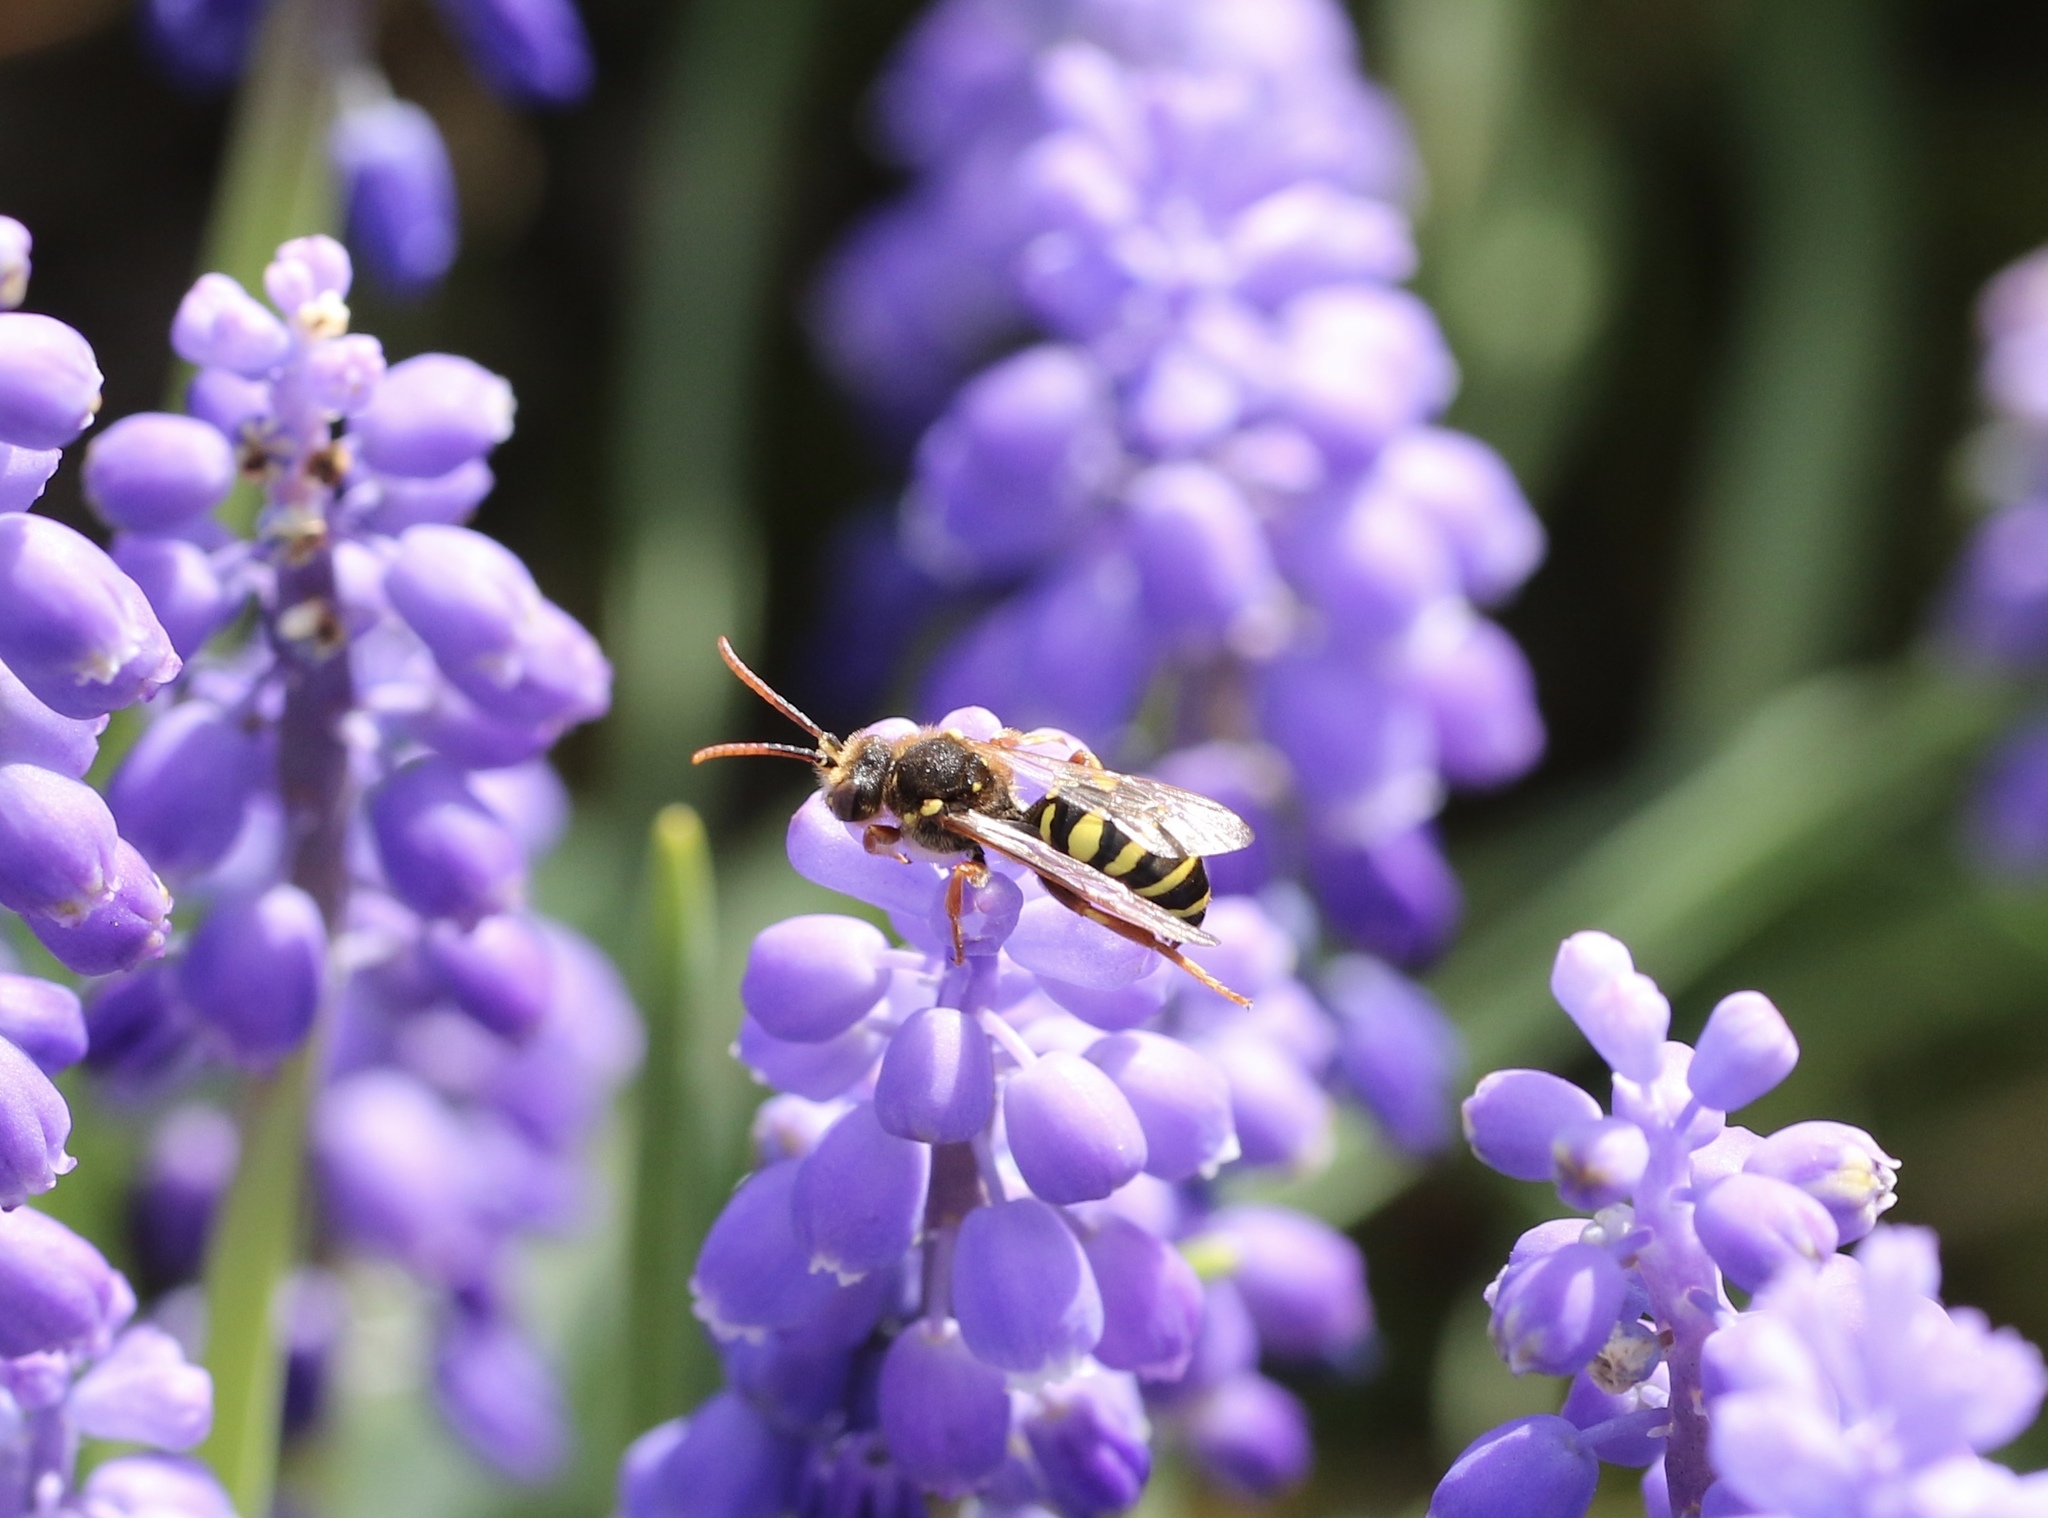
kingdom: Animalia
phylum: Arthropoda
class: Insecta
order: Hymenoptera
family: Apidae
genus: Nomada
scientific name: Nomada goodeniana
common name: Gooden's nomad bee
